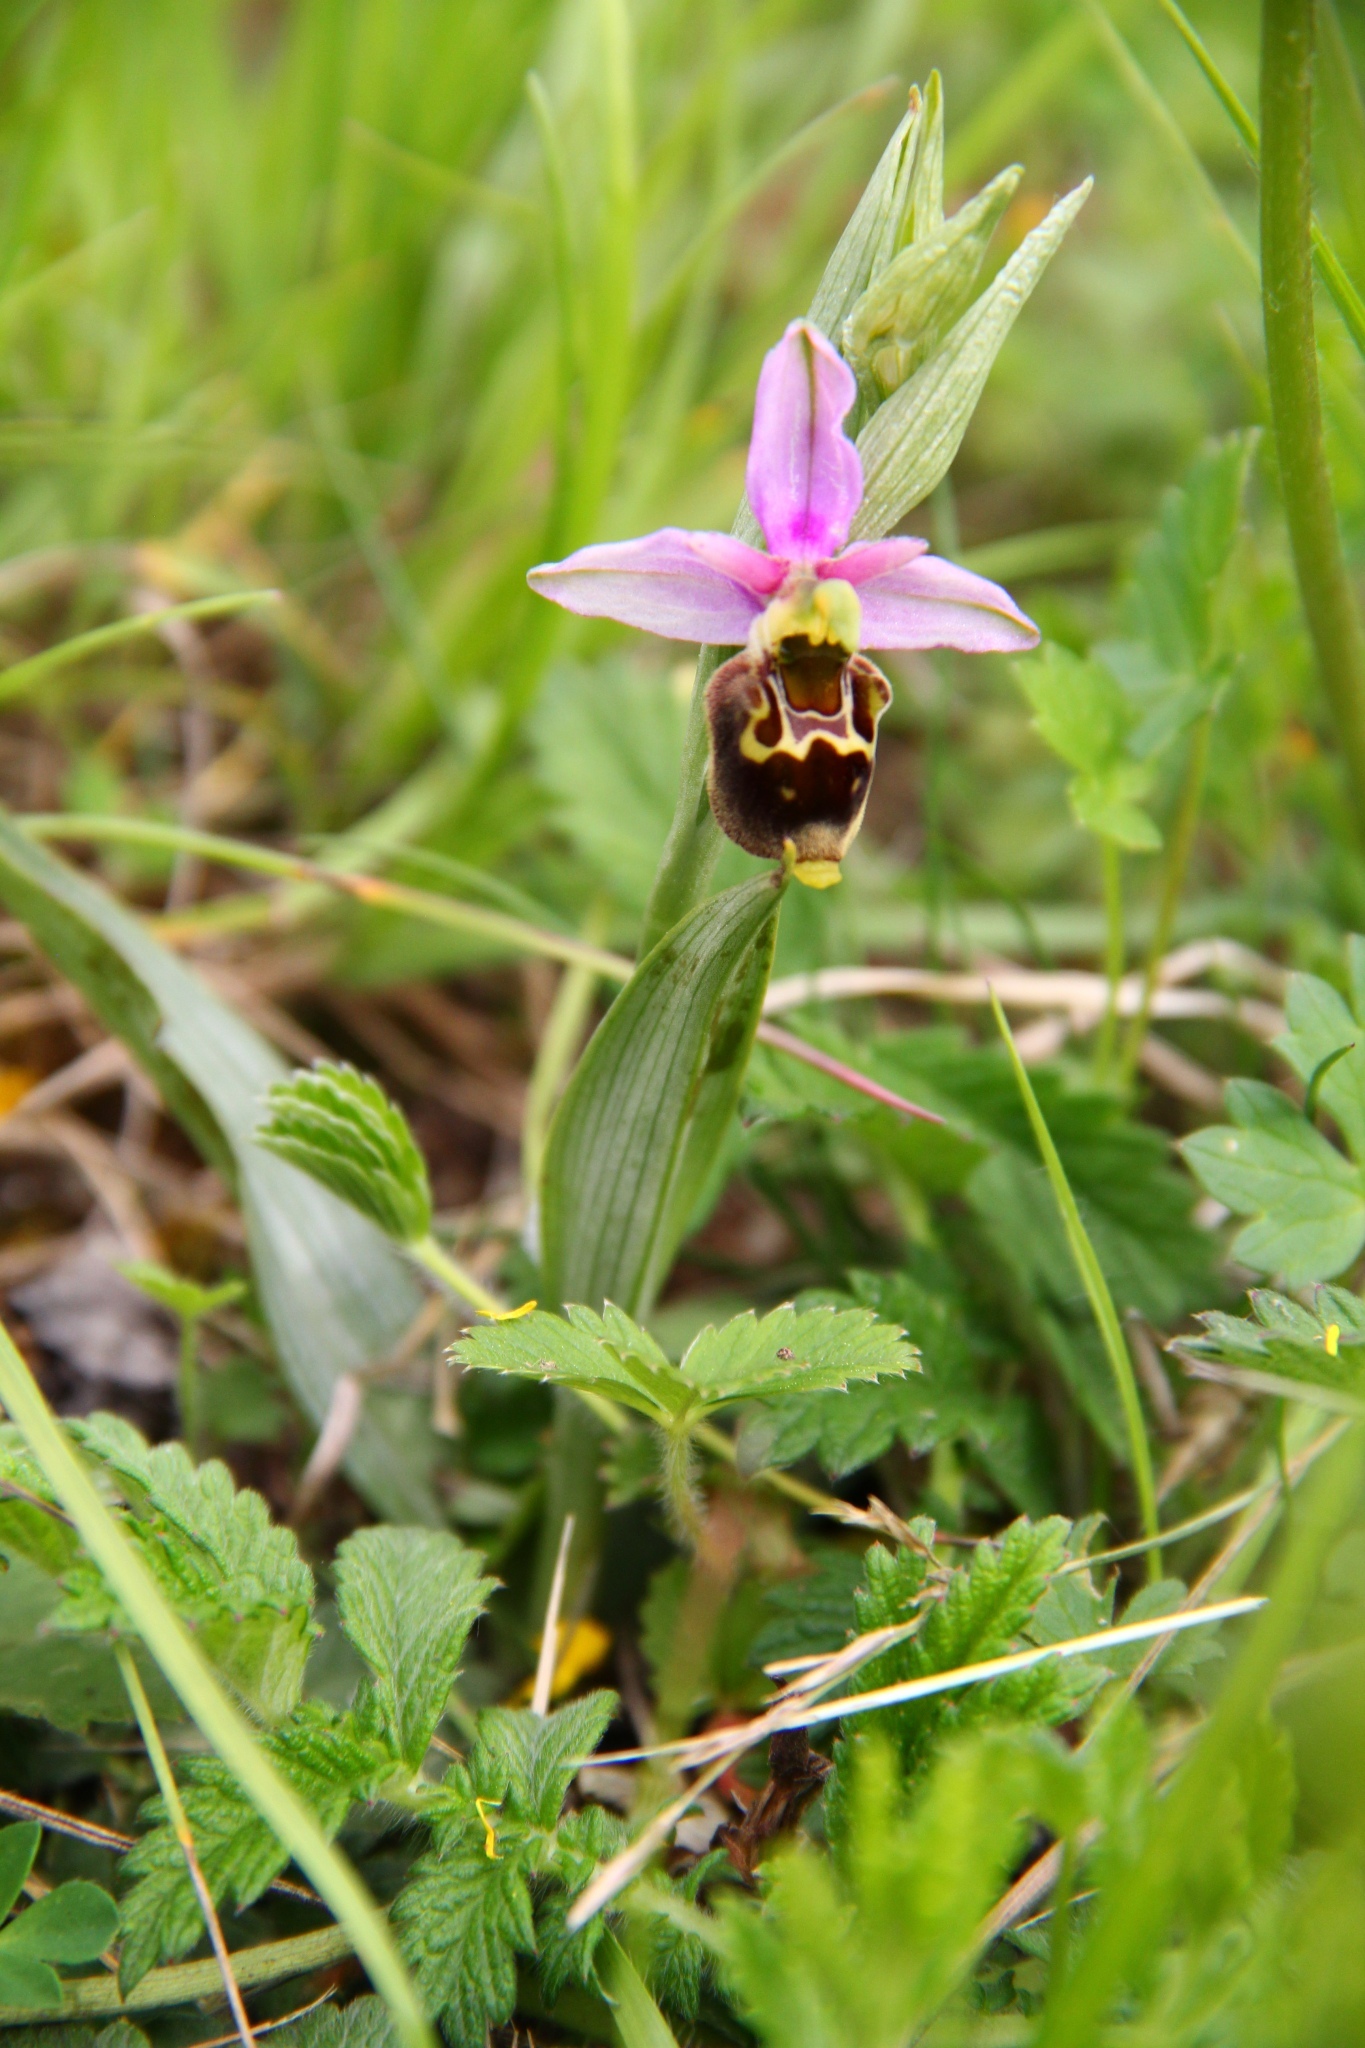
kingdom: Plantae
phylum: Tracheophyta
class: Liliopsida
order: Asparagales
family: Orchidaceae
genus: Ophrys
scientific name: Ophrys holosericea
